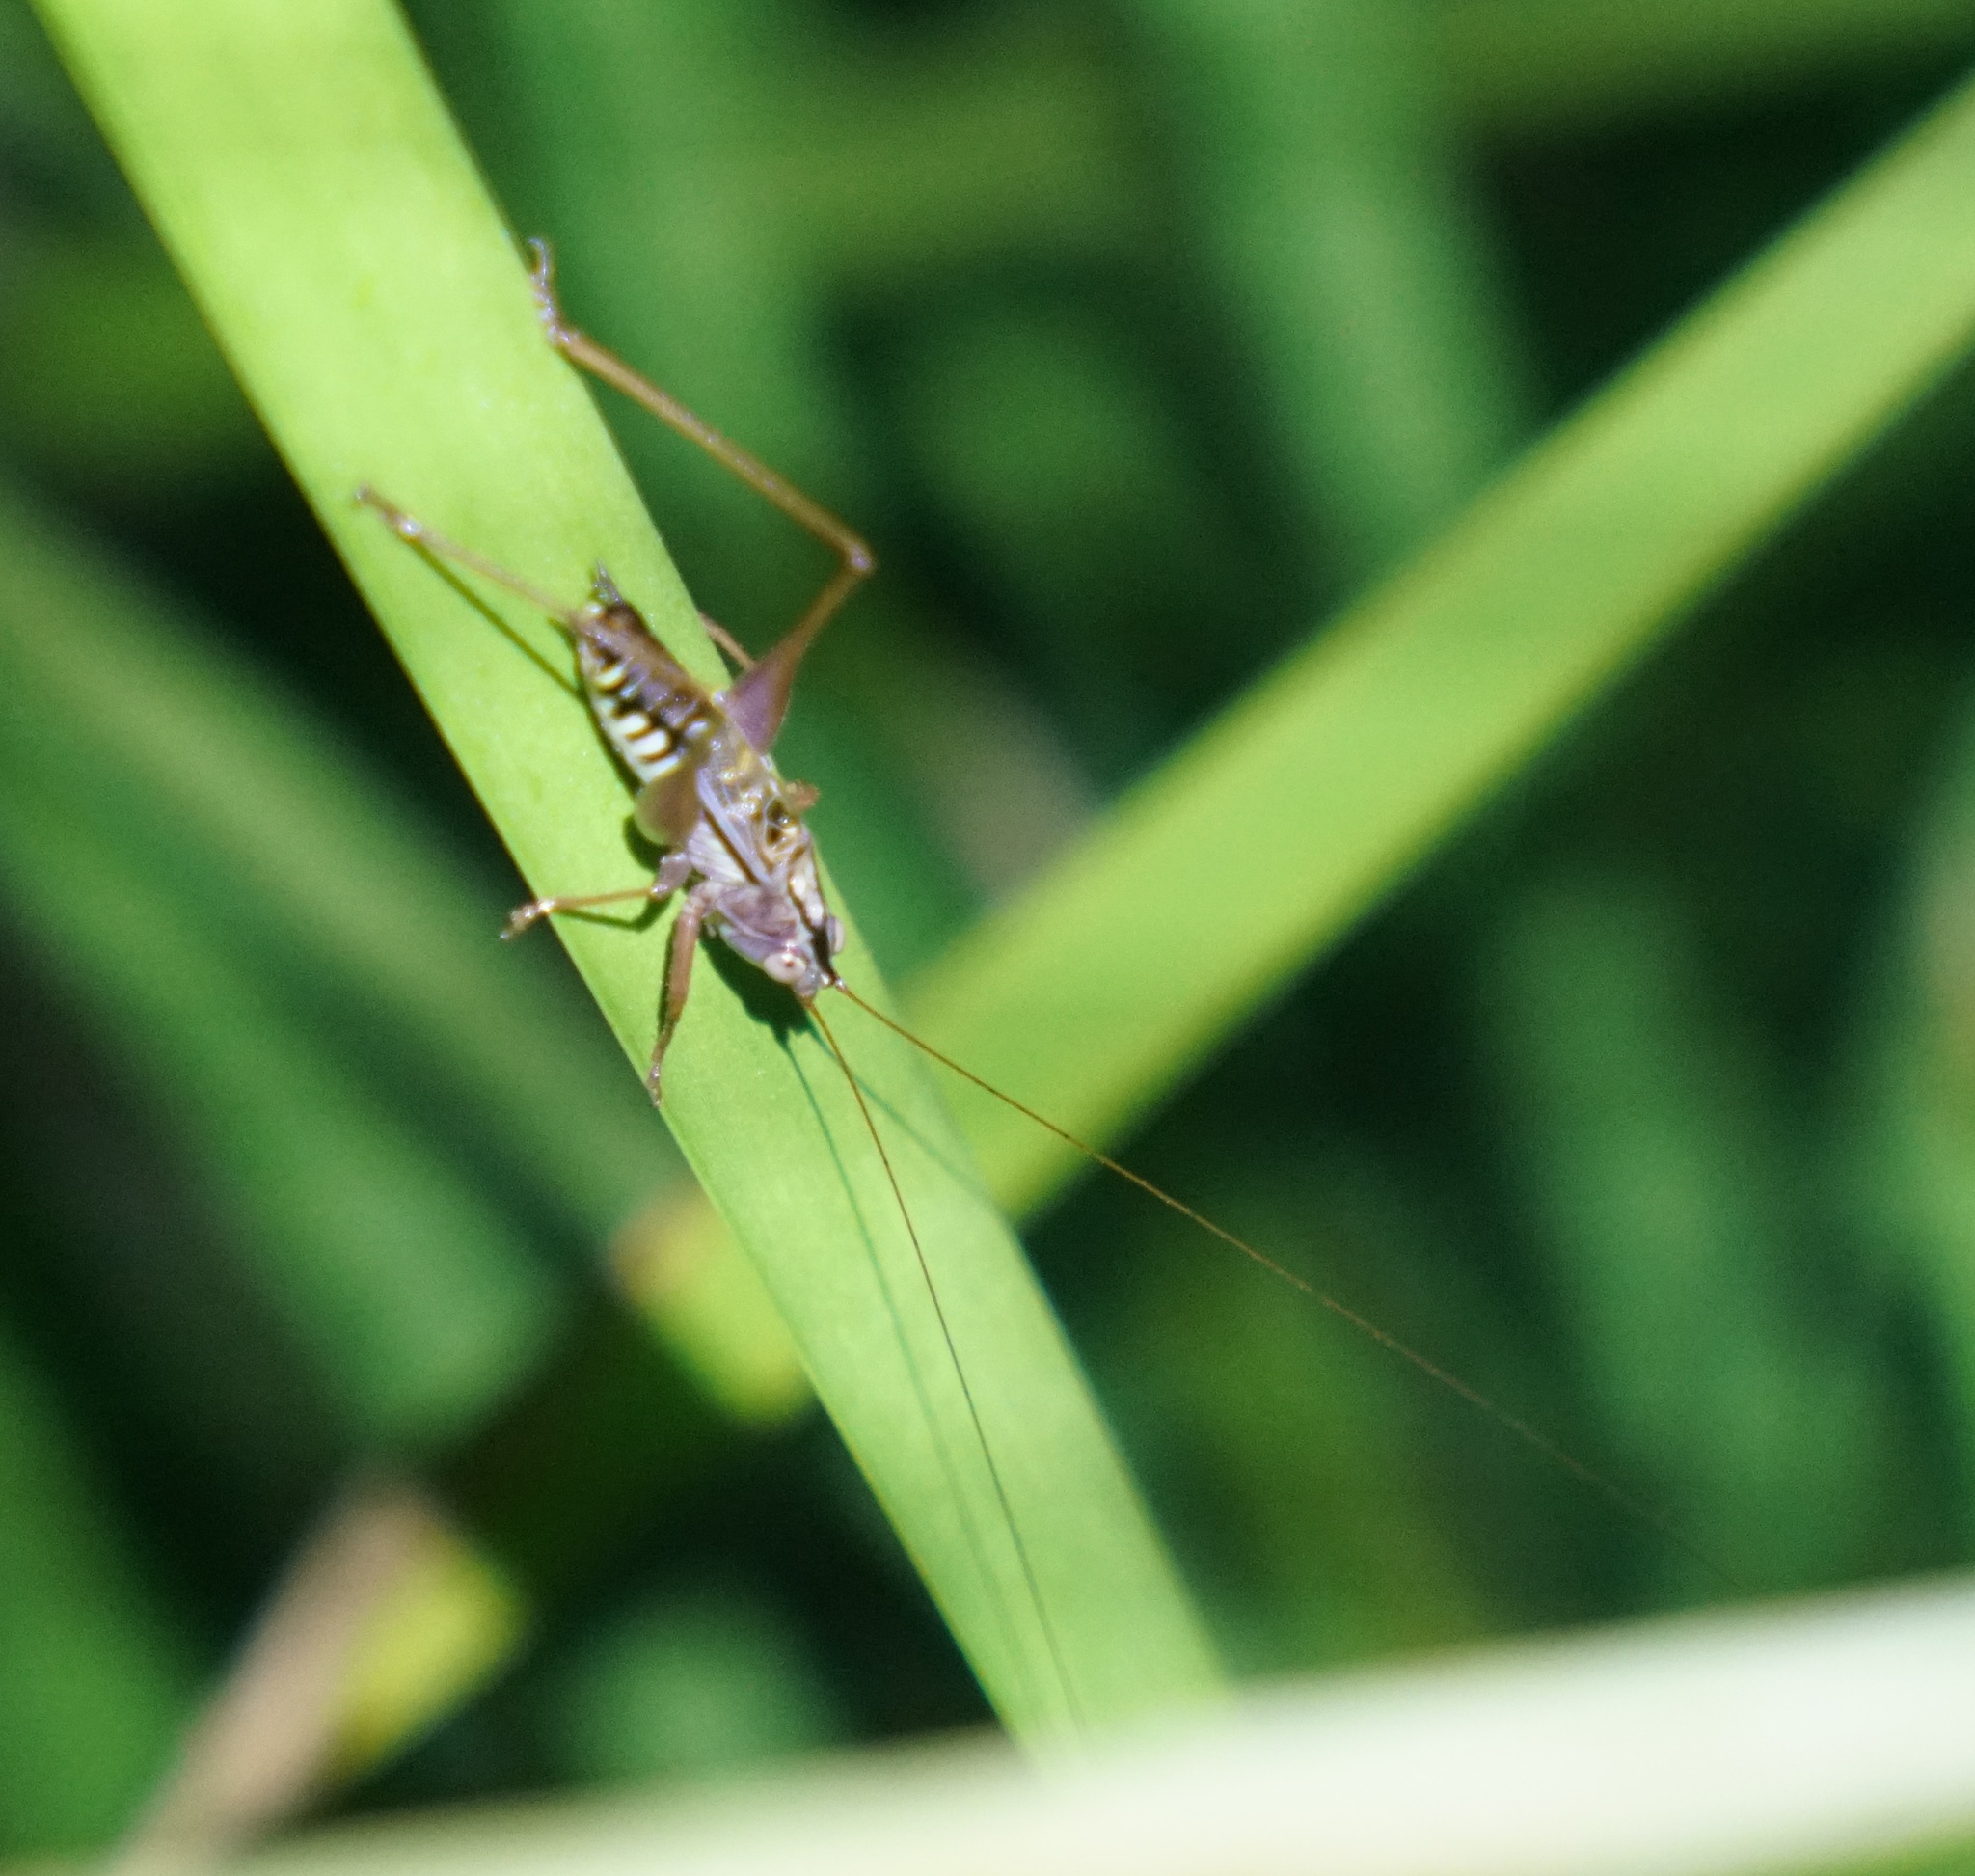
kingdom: Animalia
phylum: Arthropoda
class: Insecta
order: Orthoptera
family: Tettigoniidae
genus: Conocephalus
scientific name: Conocephalus semivittatus
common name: Blackish meadow katydid
